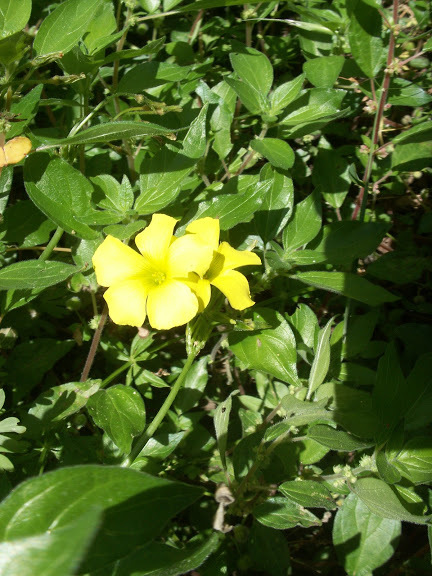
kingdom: Plantae
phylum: Tracheophyta
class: Magnoliopsida
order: Oxalidales
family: Oxalidaceae
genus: Oxalis
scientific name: Oxalis pes-caprae
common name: Bermuda-buttercup
